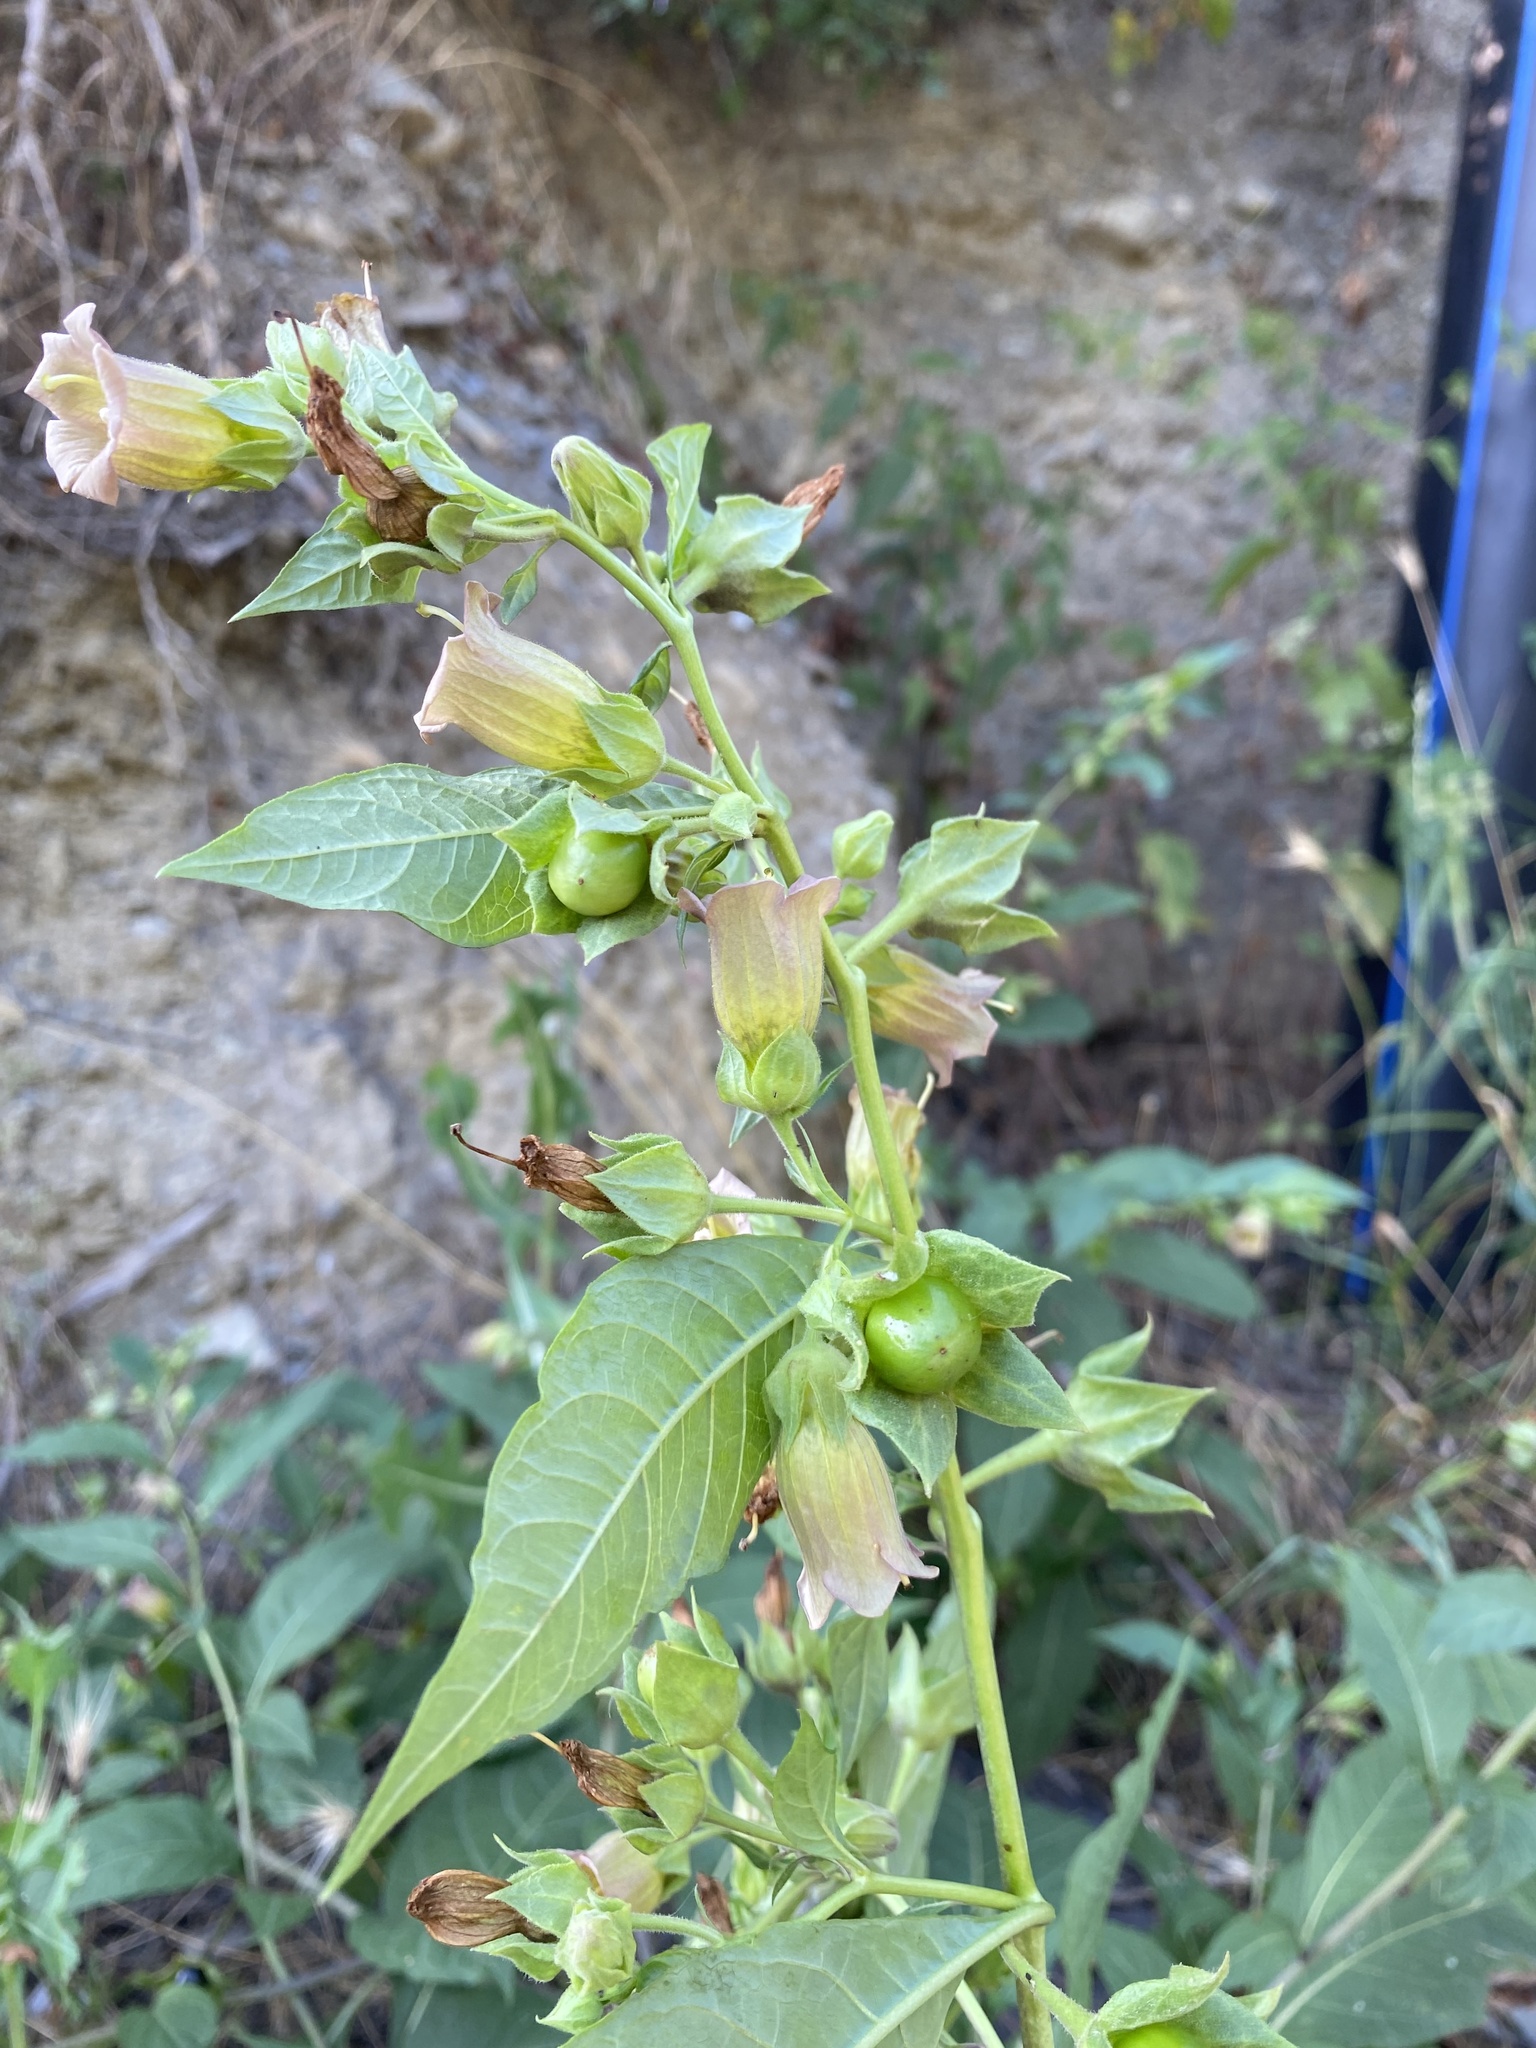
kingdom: Plantae
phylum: Tracheophyta
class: Magnoliopsida
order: Solanales
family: Solanaceae
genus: Atropa
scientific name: Atropa belladonna
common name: Deadly nightshade
